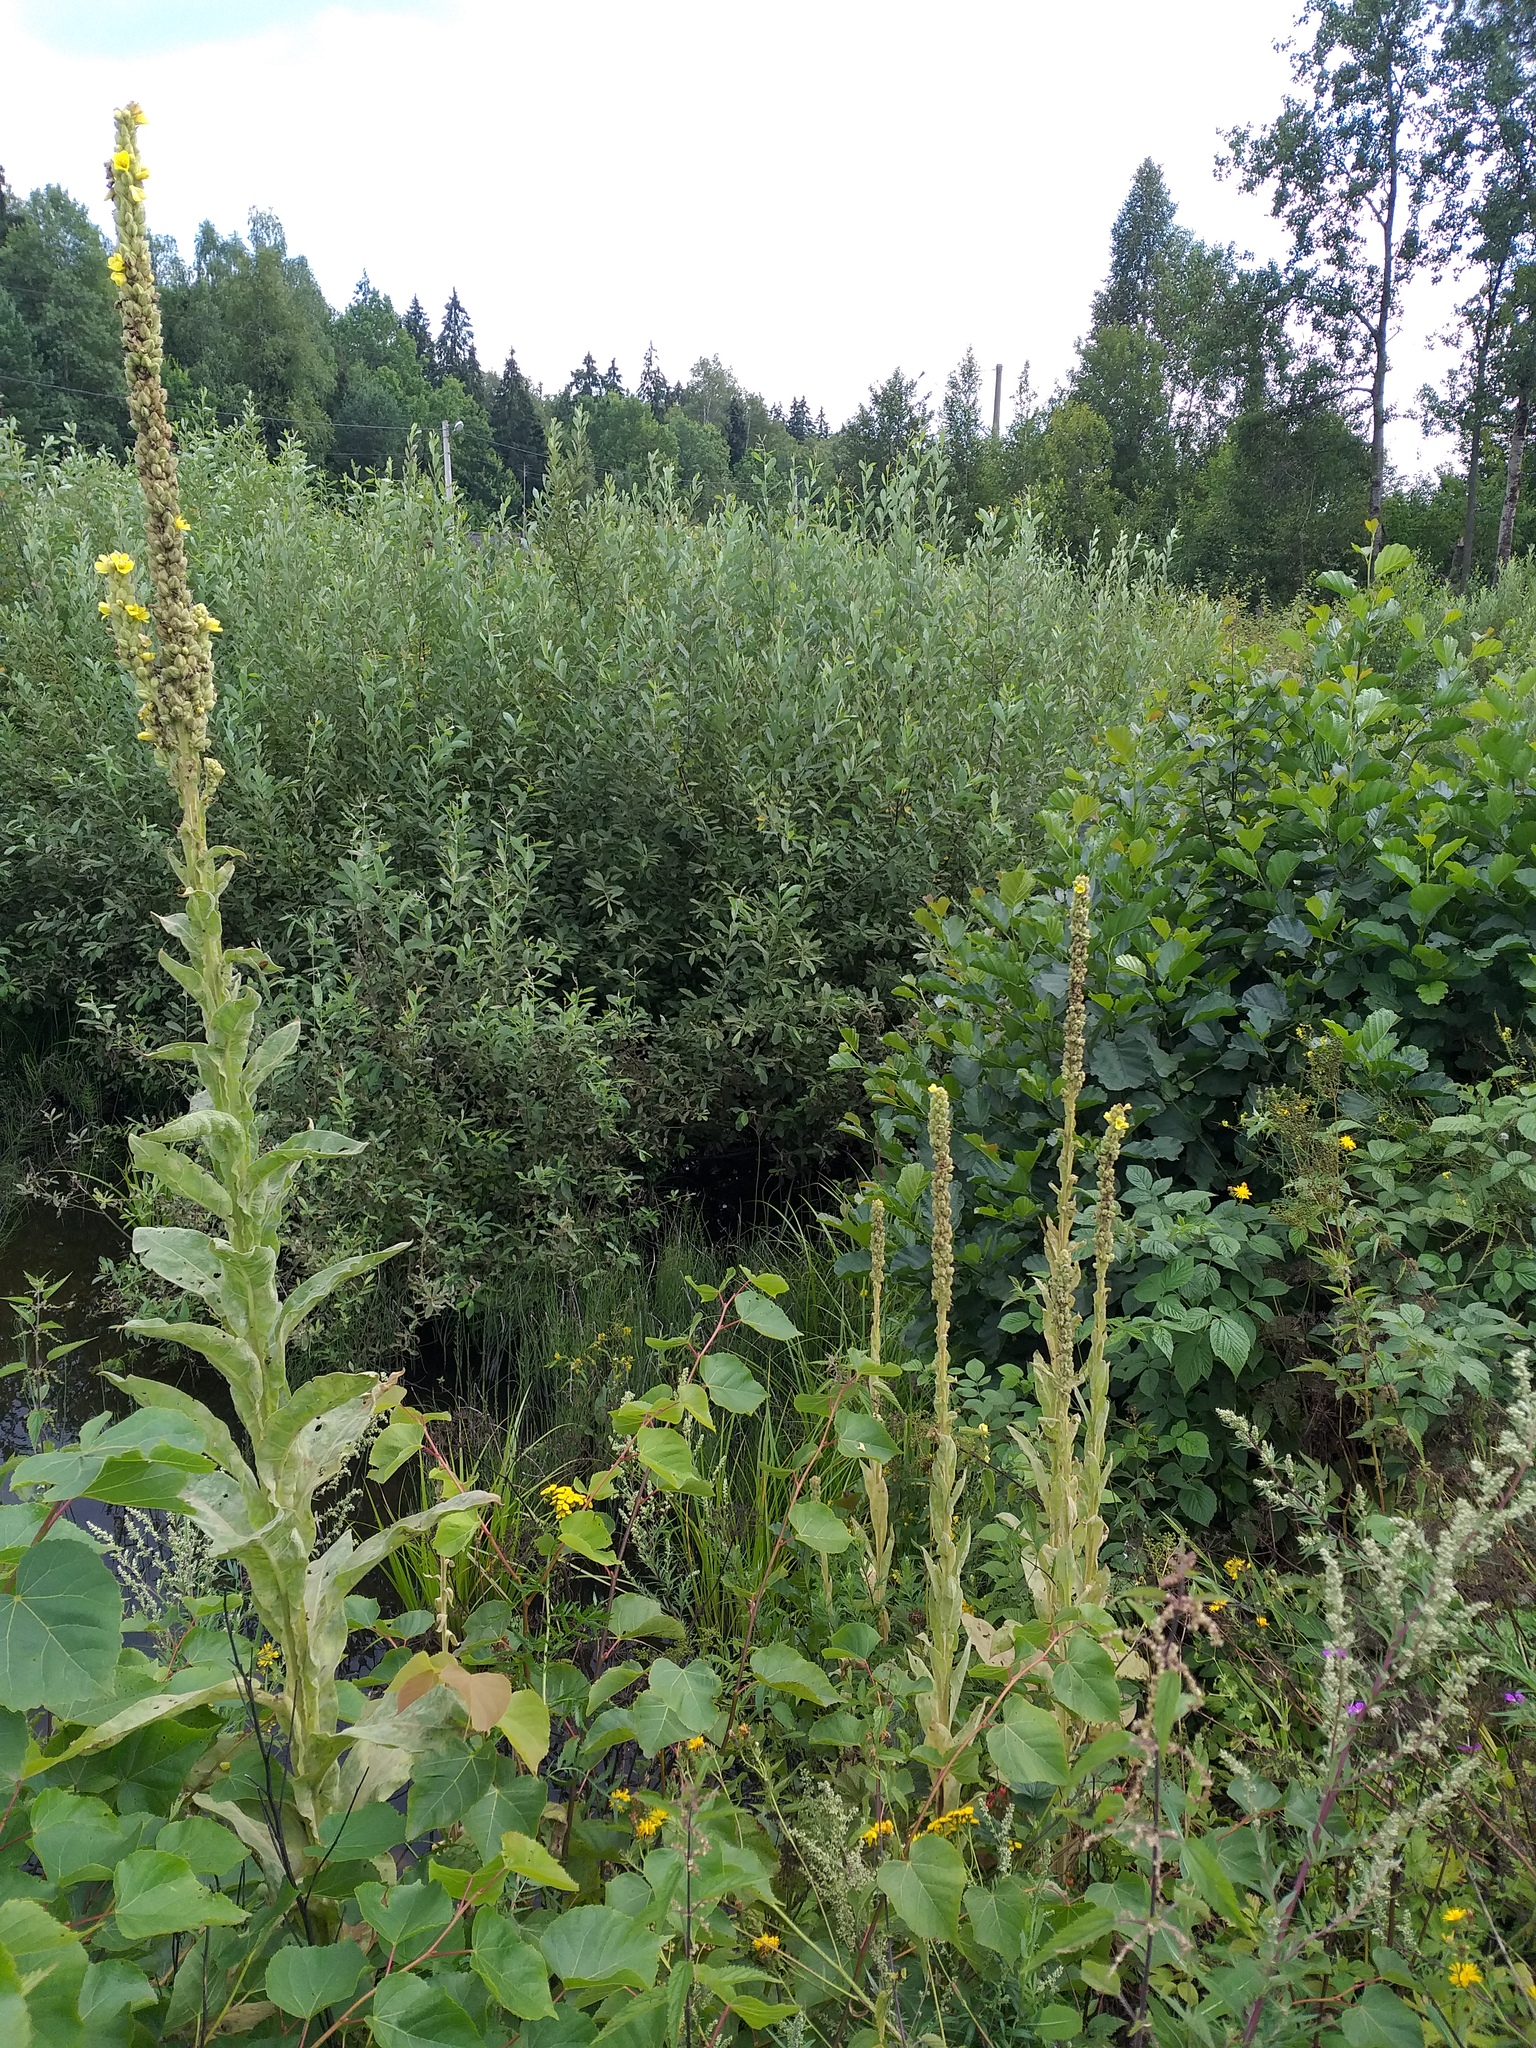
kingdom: Plantae
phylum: Tracheophyta
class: Magnoliopsida
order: Lamiales
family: Scrophulariaceae
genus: Verbascum
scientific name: Verbascum thapsus
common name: Common mullein
